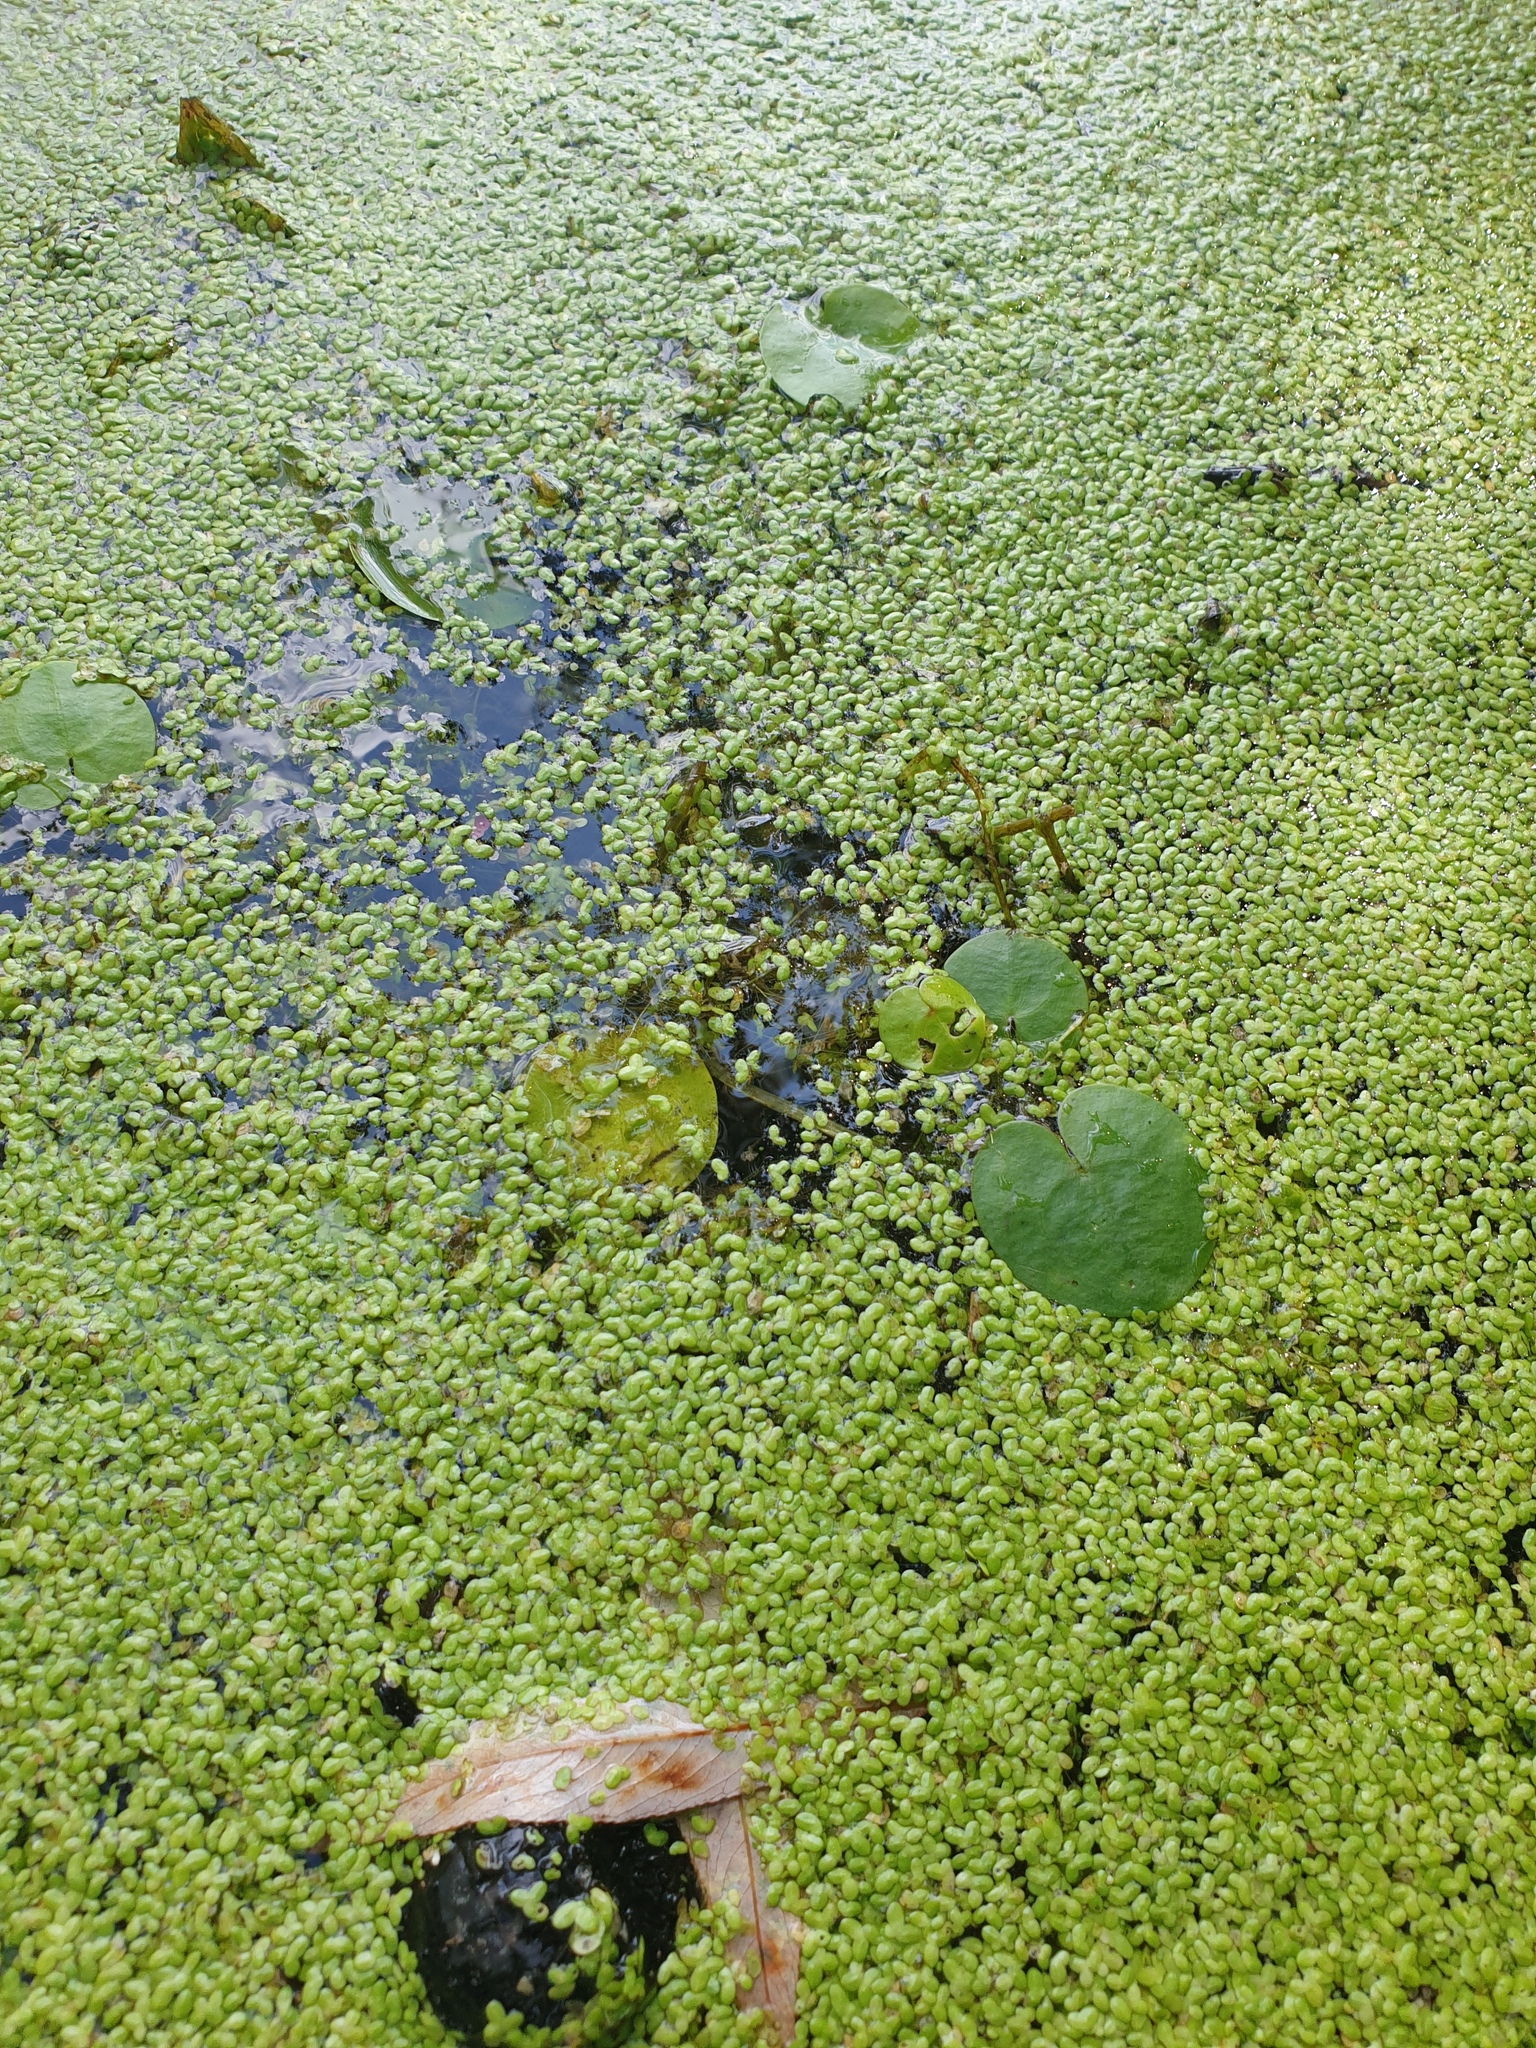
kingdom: Plantae
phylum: Tracheophyta
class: Liliopsida
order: Alismatales
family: Hydrocharitaceae
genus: Hydrocharis
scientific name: Hydrocharis morsus-ranae
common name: Frogbit
